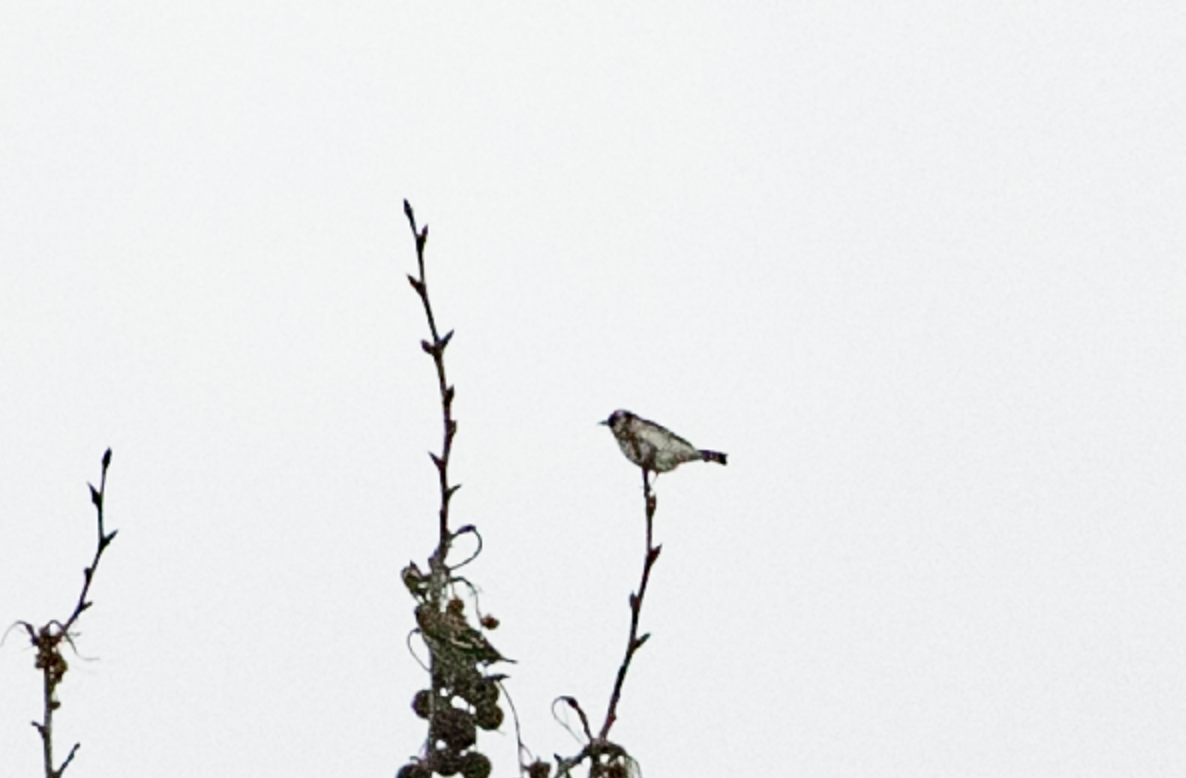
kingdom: Animalia
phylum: Chordata
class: Aves
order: Passeriformes
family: Fringillidae
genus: Carduelis
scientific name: Carduelis carduelis
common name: European goldfinch
